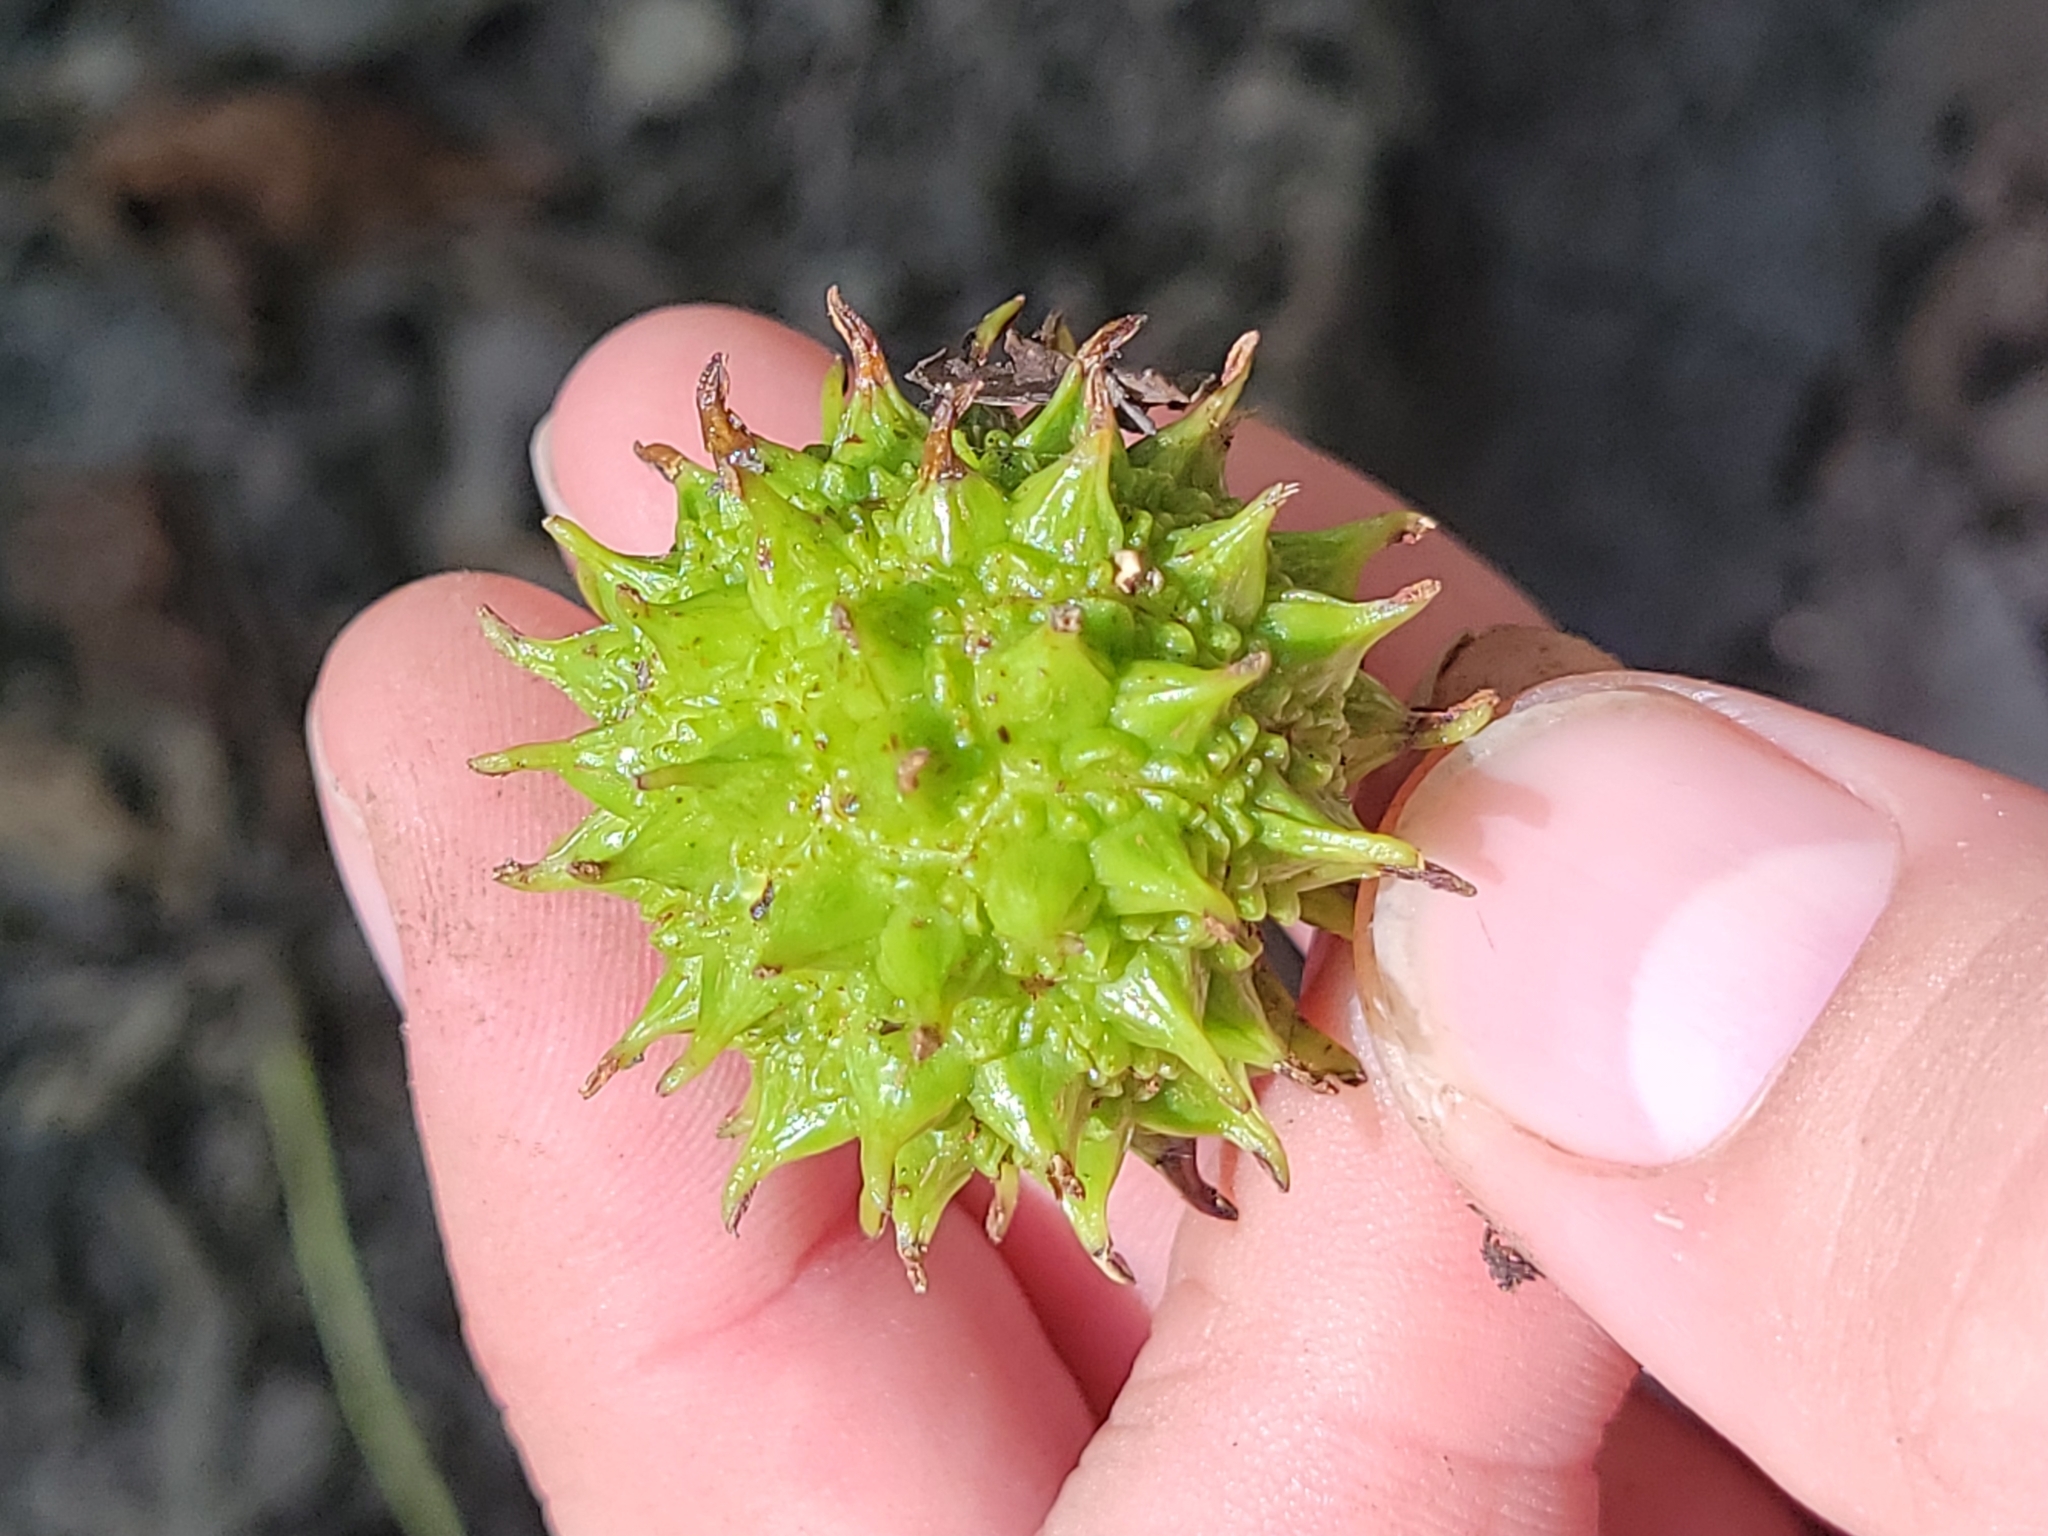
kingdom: Plantae
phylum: Tracheophyta
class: Magnoliopsida
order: Saxifragales
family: Altingiaceae
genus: Liquidambar
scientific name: Liquidambar styraciflua
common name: Sweet gum
